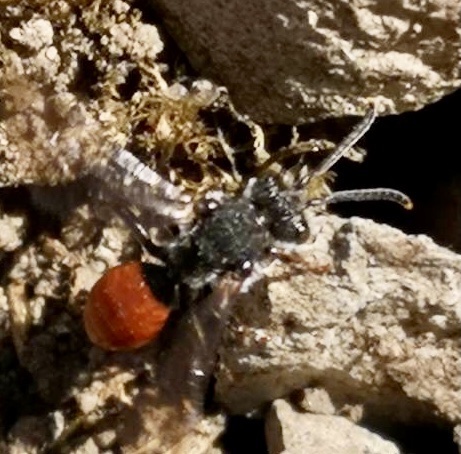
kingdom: Animalia
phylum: Arthropoda
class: Insecta
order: Hymenoptera
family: Apidae
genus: Nomada
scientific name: Nomada fabriciana
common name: Fabricius' nomad bee
